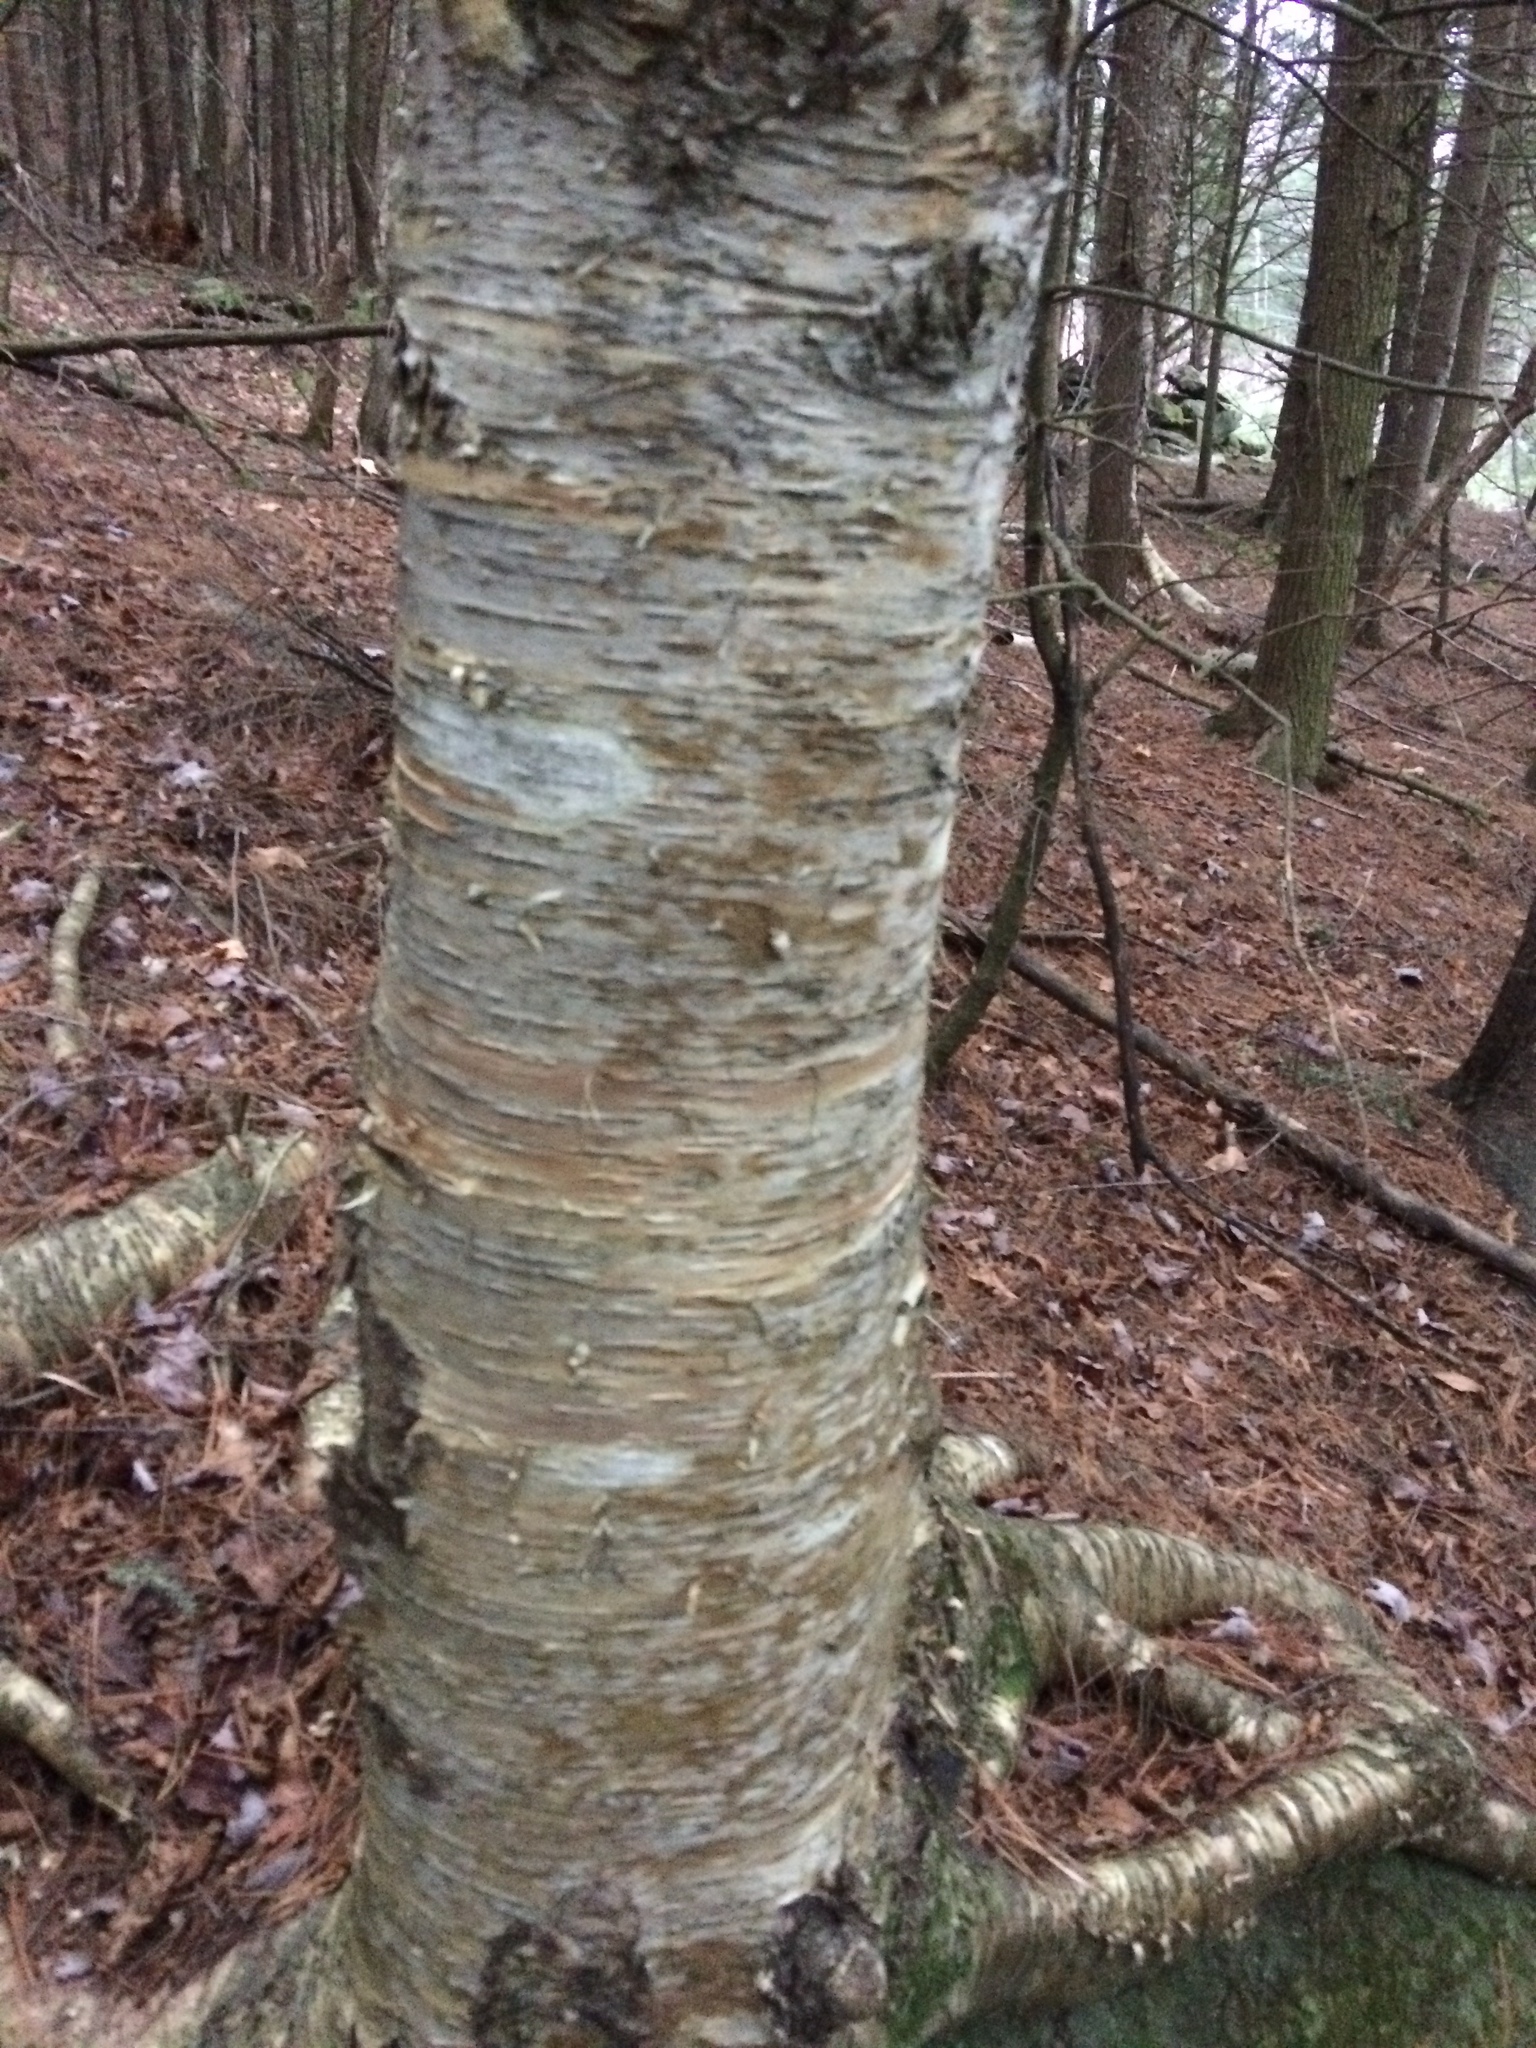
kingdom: Plantae
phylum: Tracheophyta
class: Magnoliopsida
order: Fagales
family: Betulaceae
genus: Betula
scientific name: Betula alleghaniensis
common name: Yellow birch
